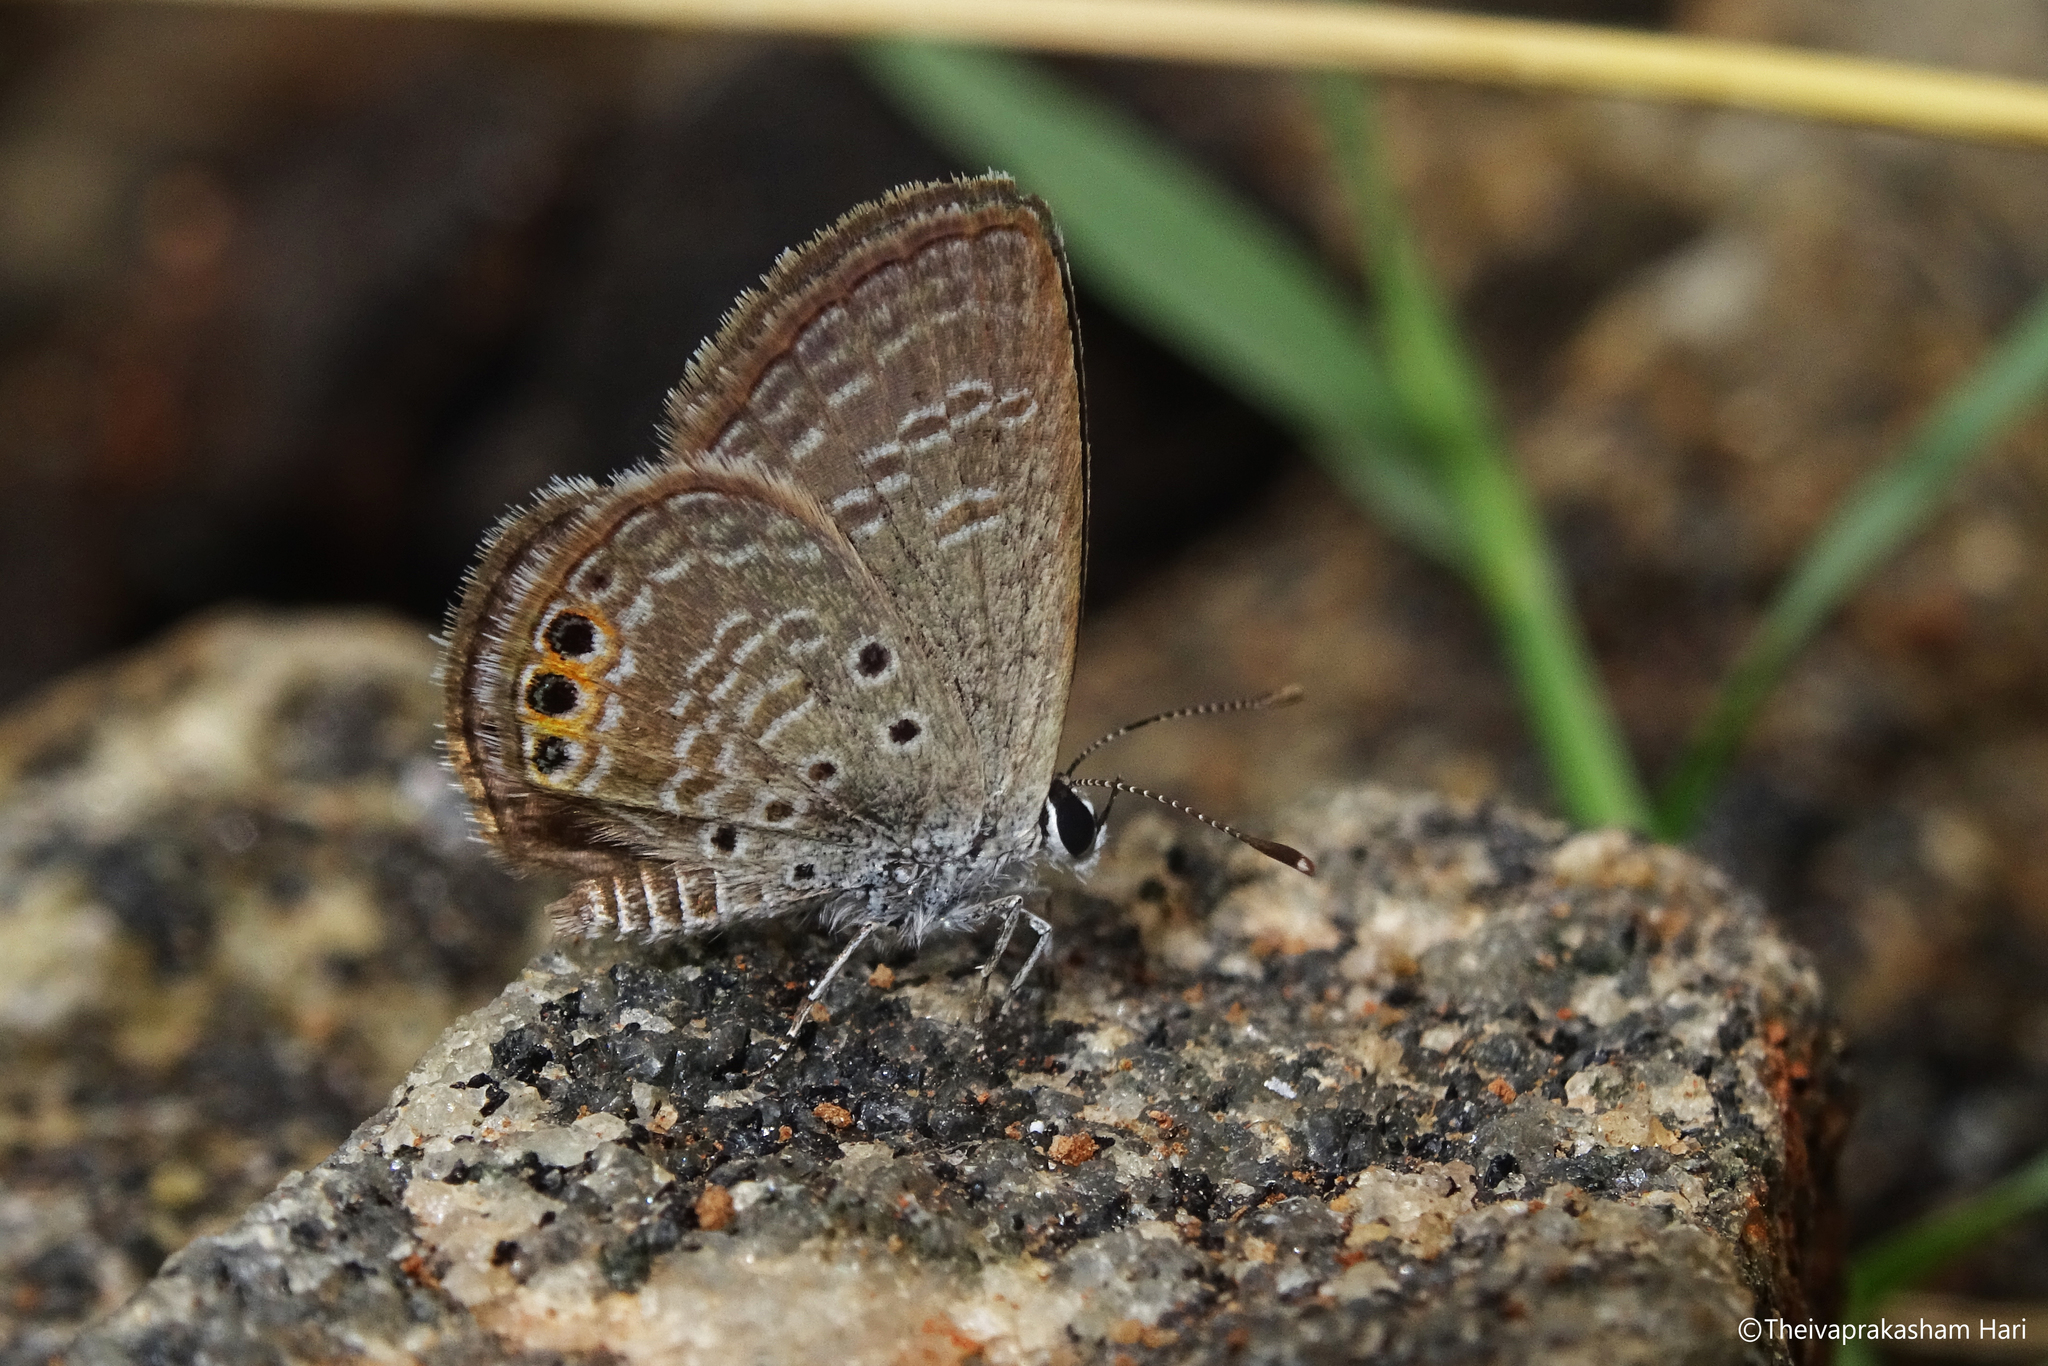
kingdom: Animalia
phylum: Arthropoda
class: Insecta
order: Lepidoptera
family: Lycaenidae
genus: Freyeria
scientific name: Freyeria trochylus
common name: Grass jewel
